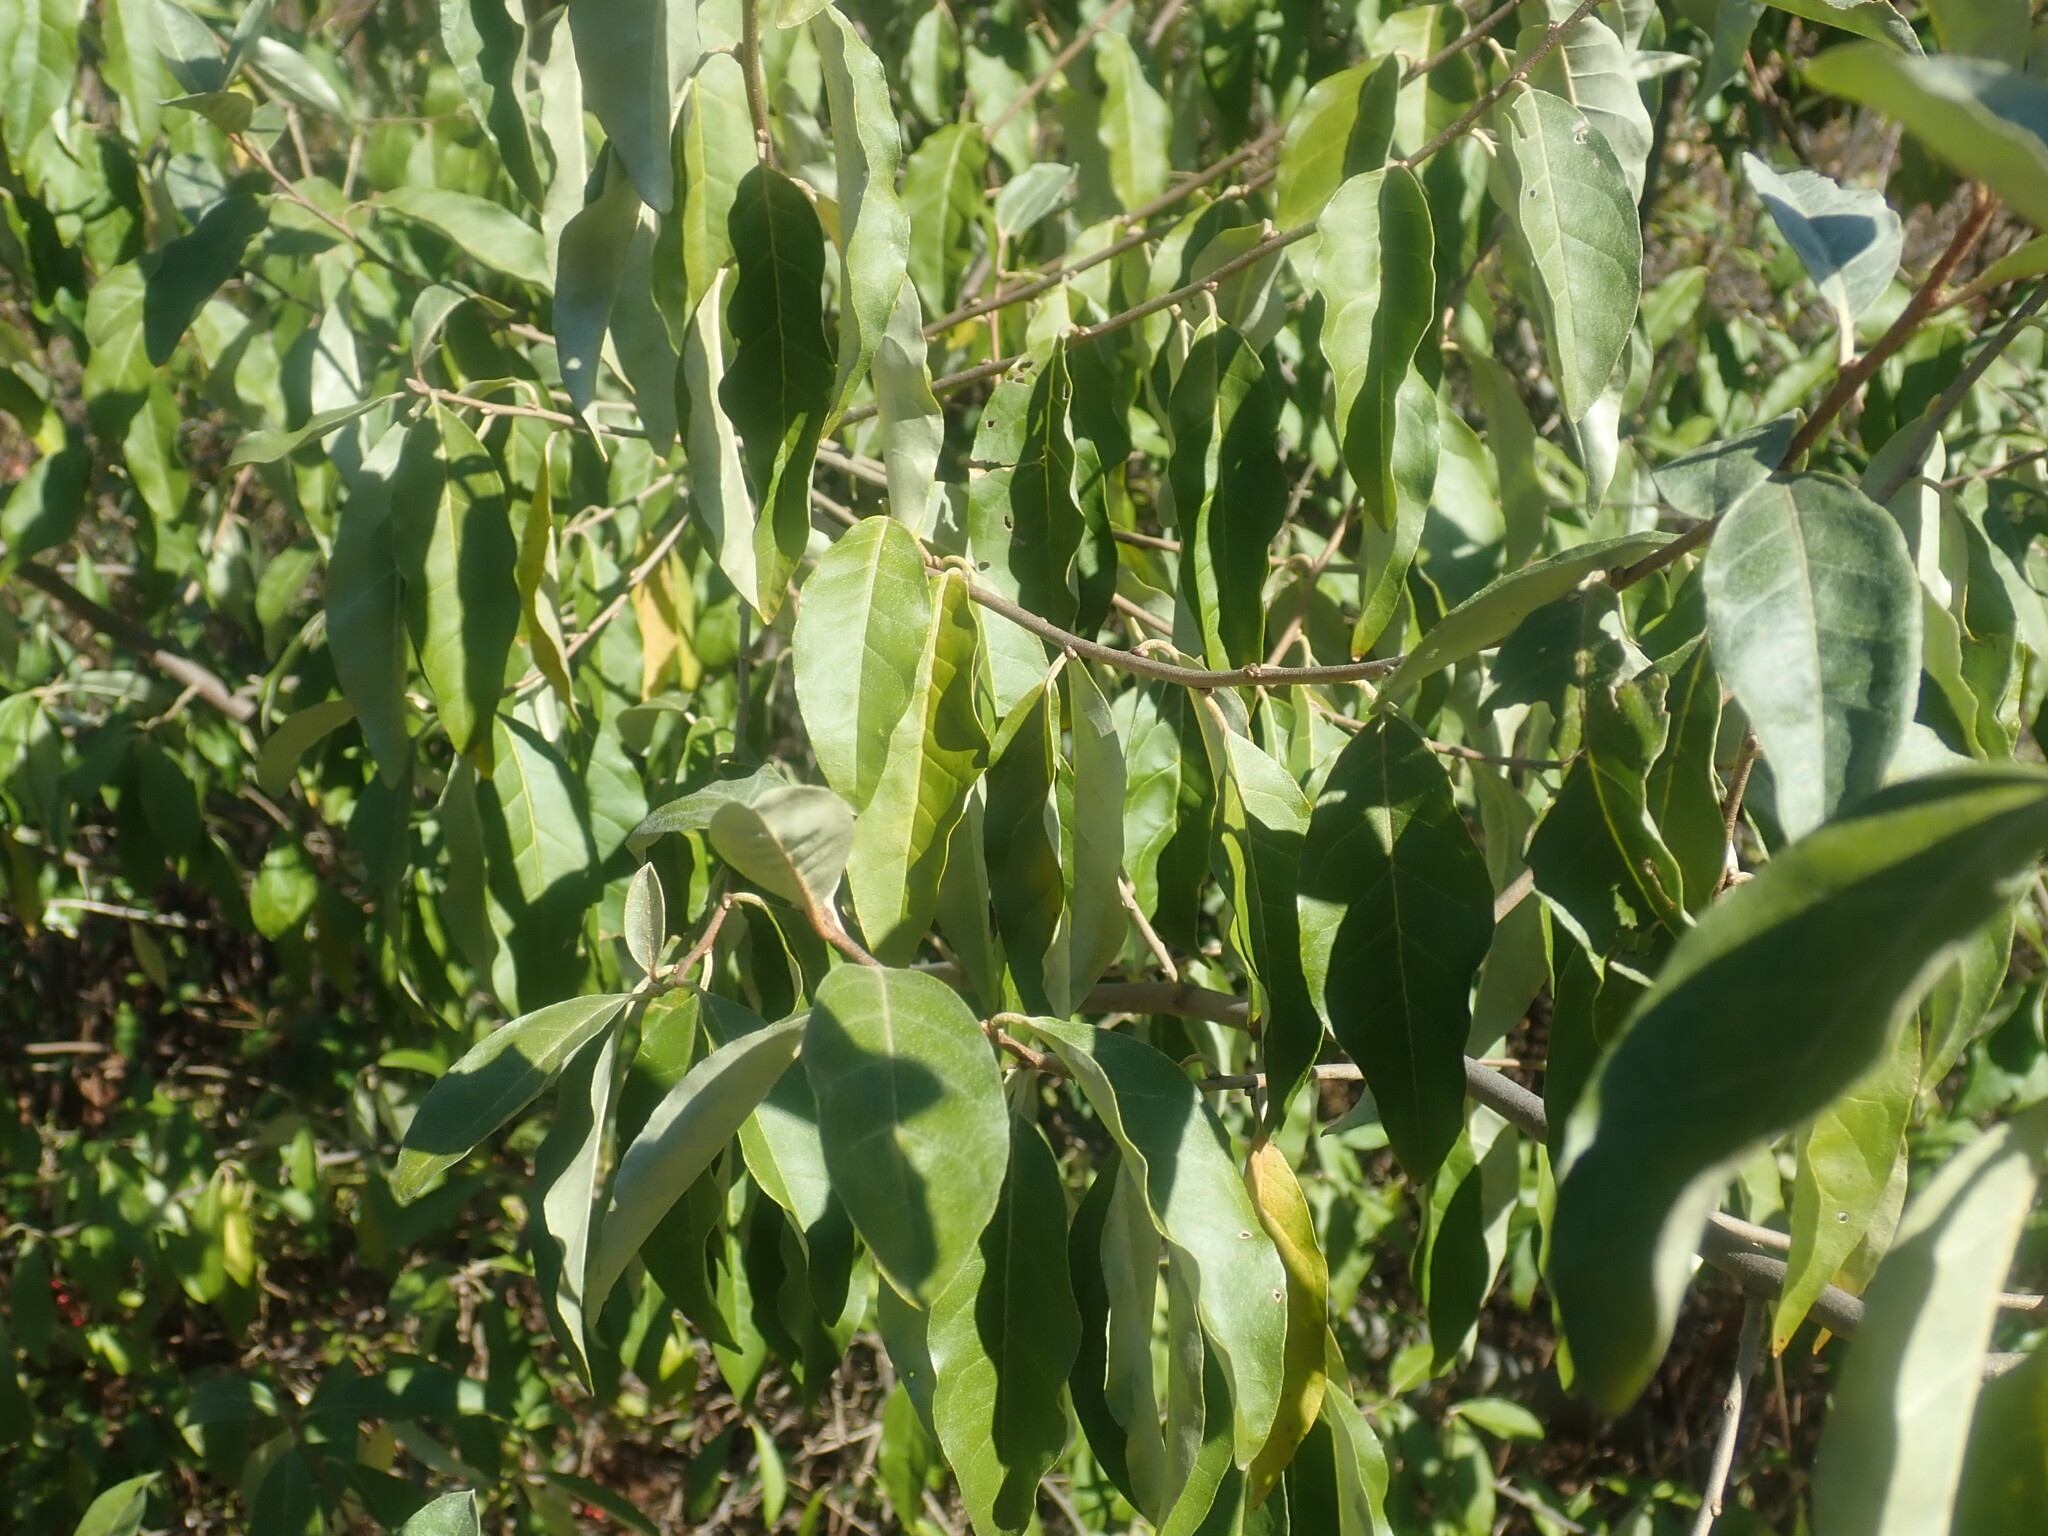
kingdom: Plantae
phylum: Tracheophyta
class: Magnoliopsida
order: Rosales
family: Elaeagnaceae
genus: Elaeagnus
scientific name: Elaeagnus umbellata
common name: Autumn olive
